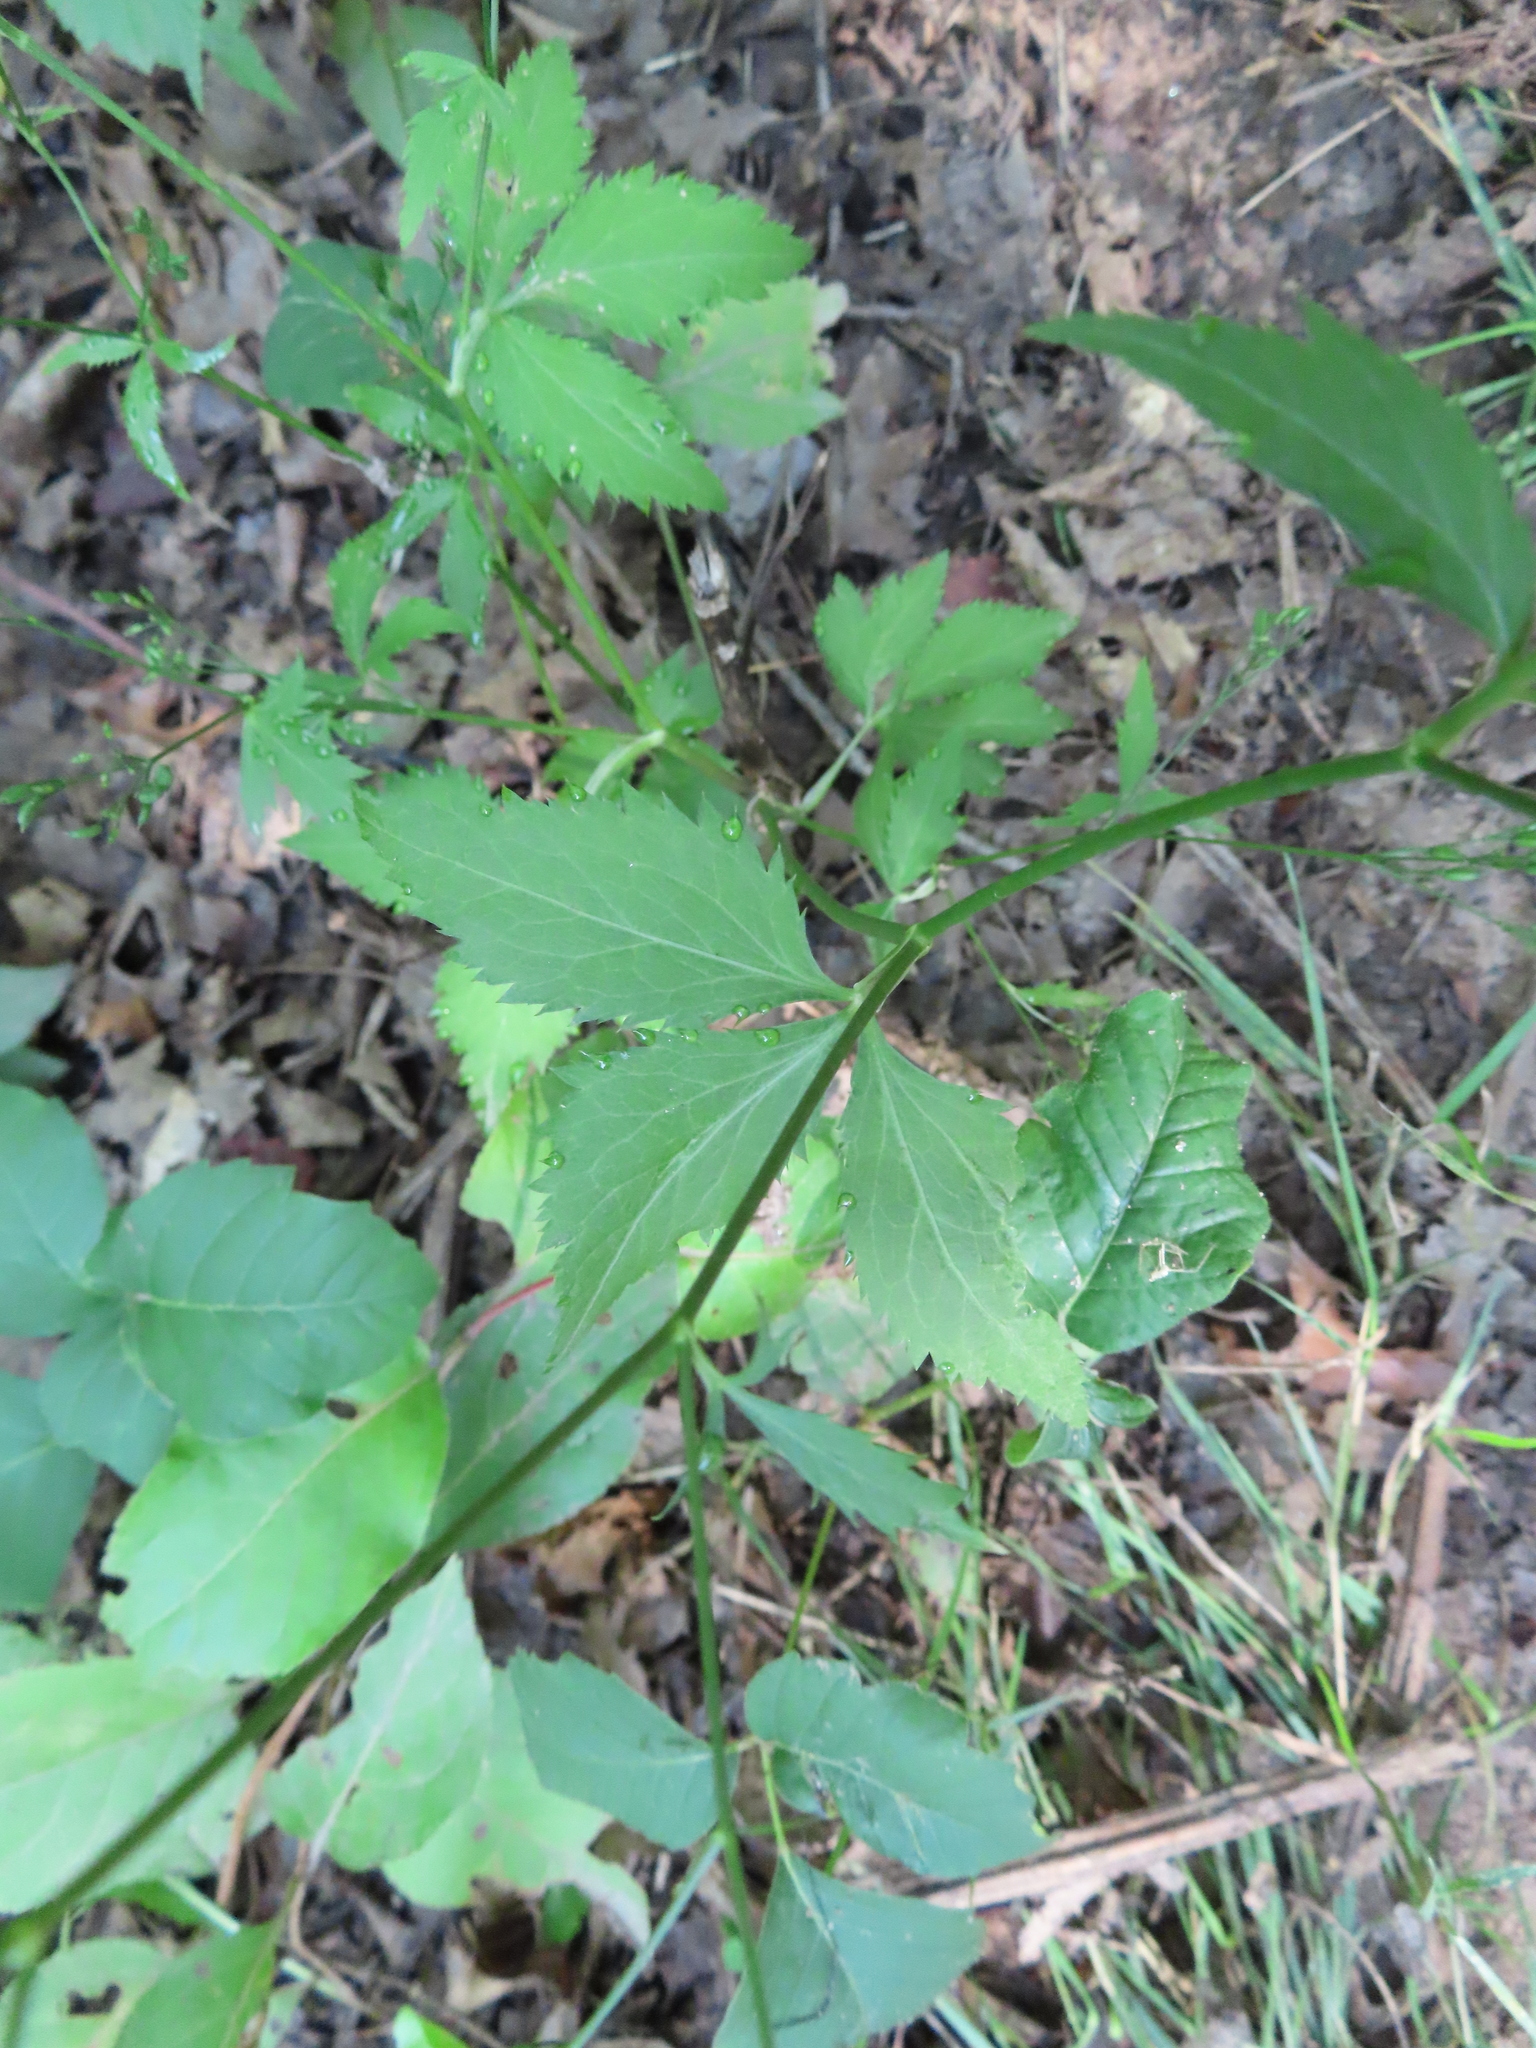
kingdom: Plantae
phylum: Tracheophyta
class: Magnoliopsida
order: Apiales
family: Apiaceae
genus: Cryptotaenia
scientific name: Cryptotaenia canadensis
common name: Honewort
